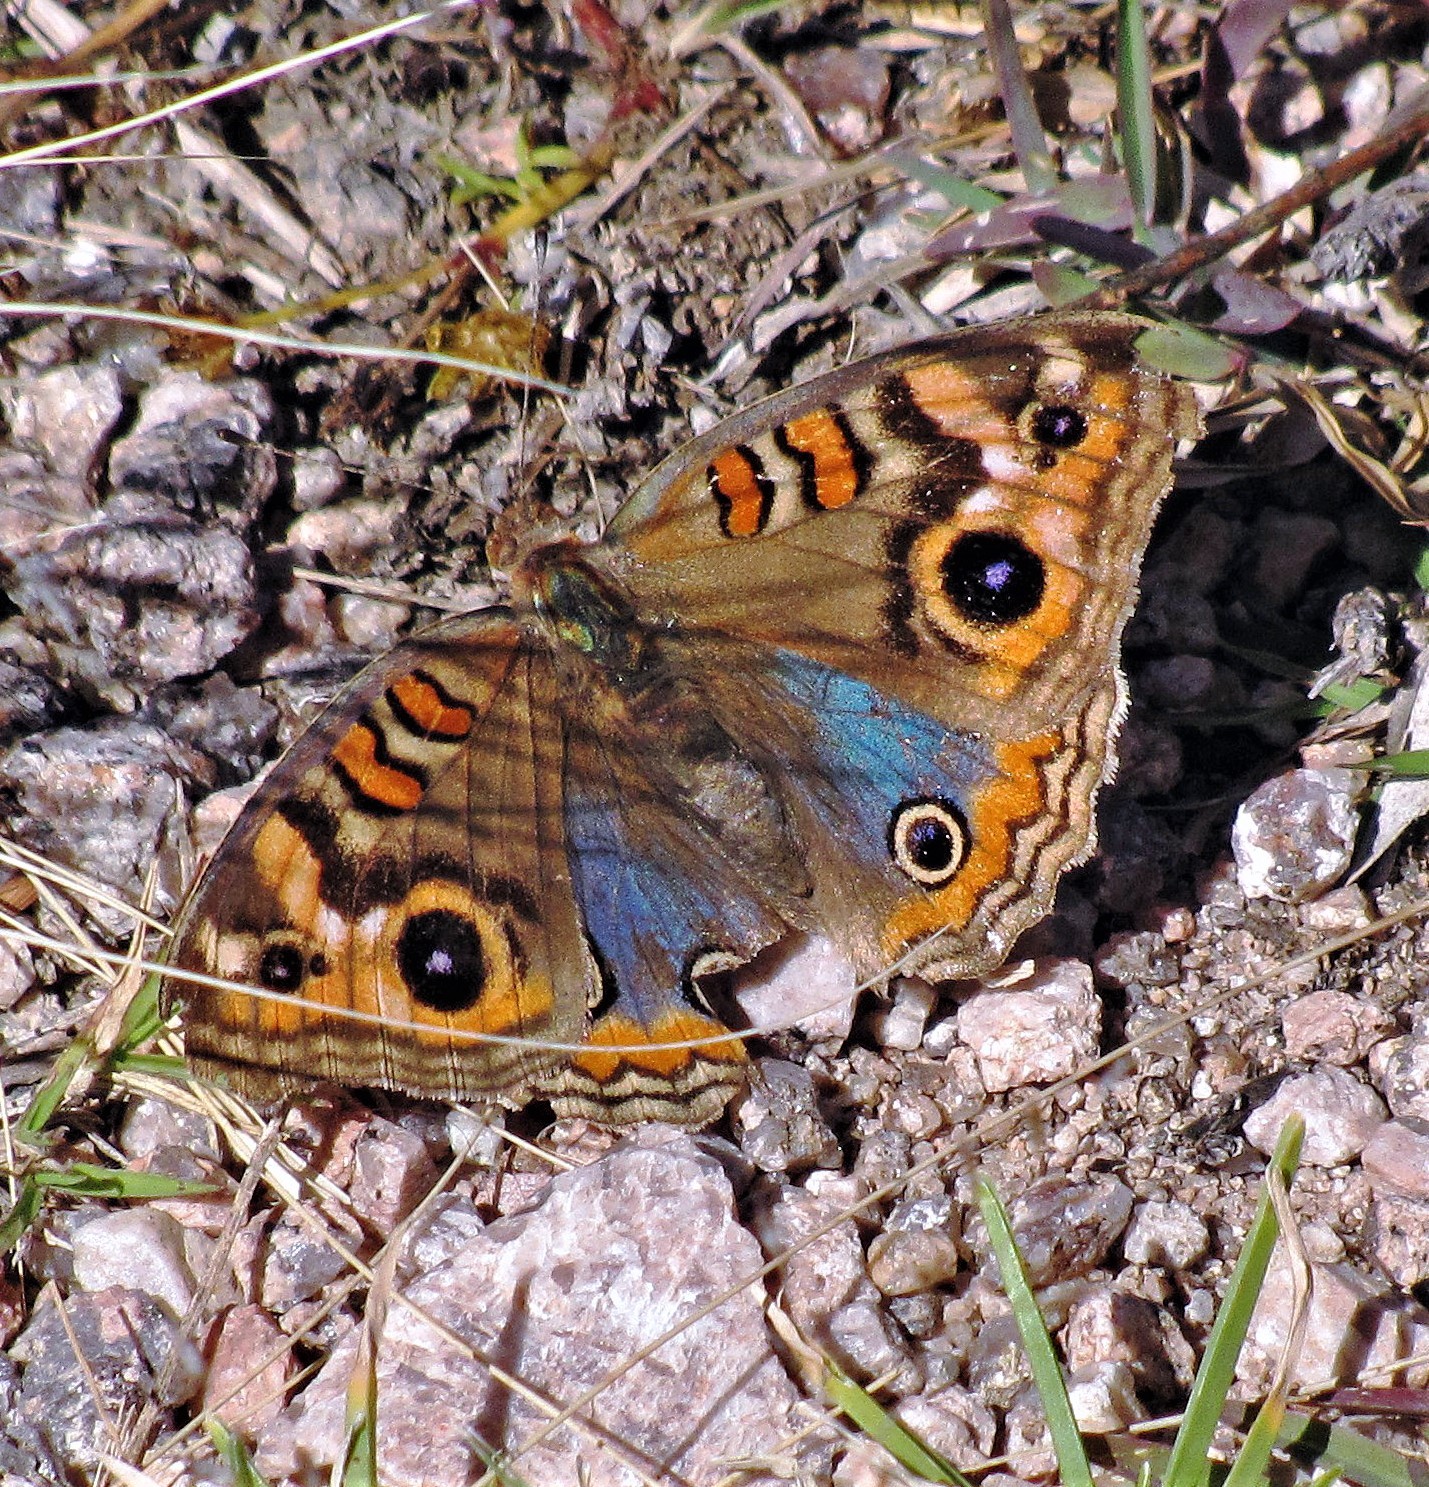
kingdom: Animalia
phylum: Arthropoda
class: Insecta
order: Lepidoptera
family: Nymphalidae
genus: Junonia
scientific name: Junonia lavinia
